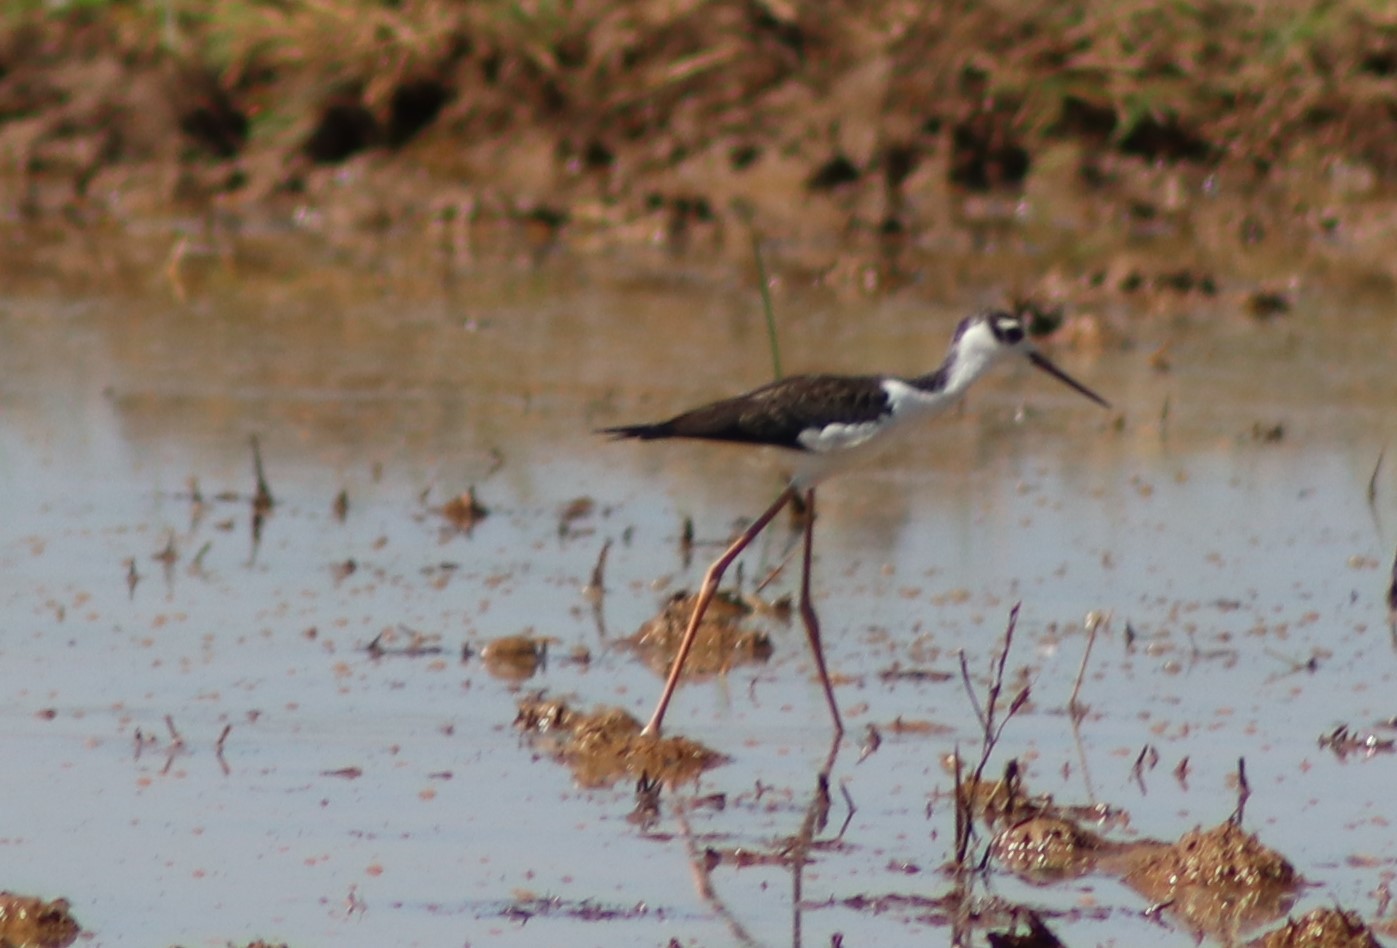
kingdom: Animalia
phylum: Chordata
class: Aves
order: Charadriiformes
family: Recurvirostridae
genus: Himantopus
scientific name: Himantopus mexicanus
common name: Black-necked stilt
